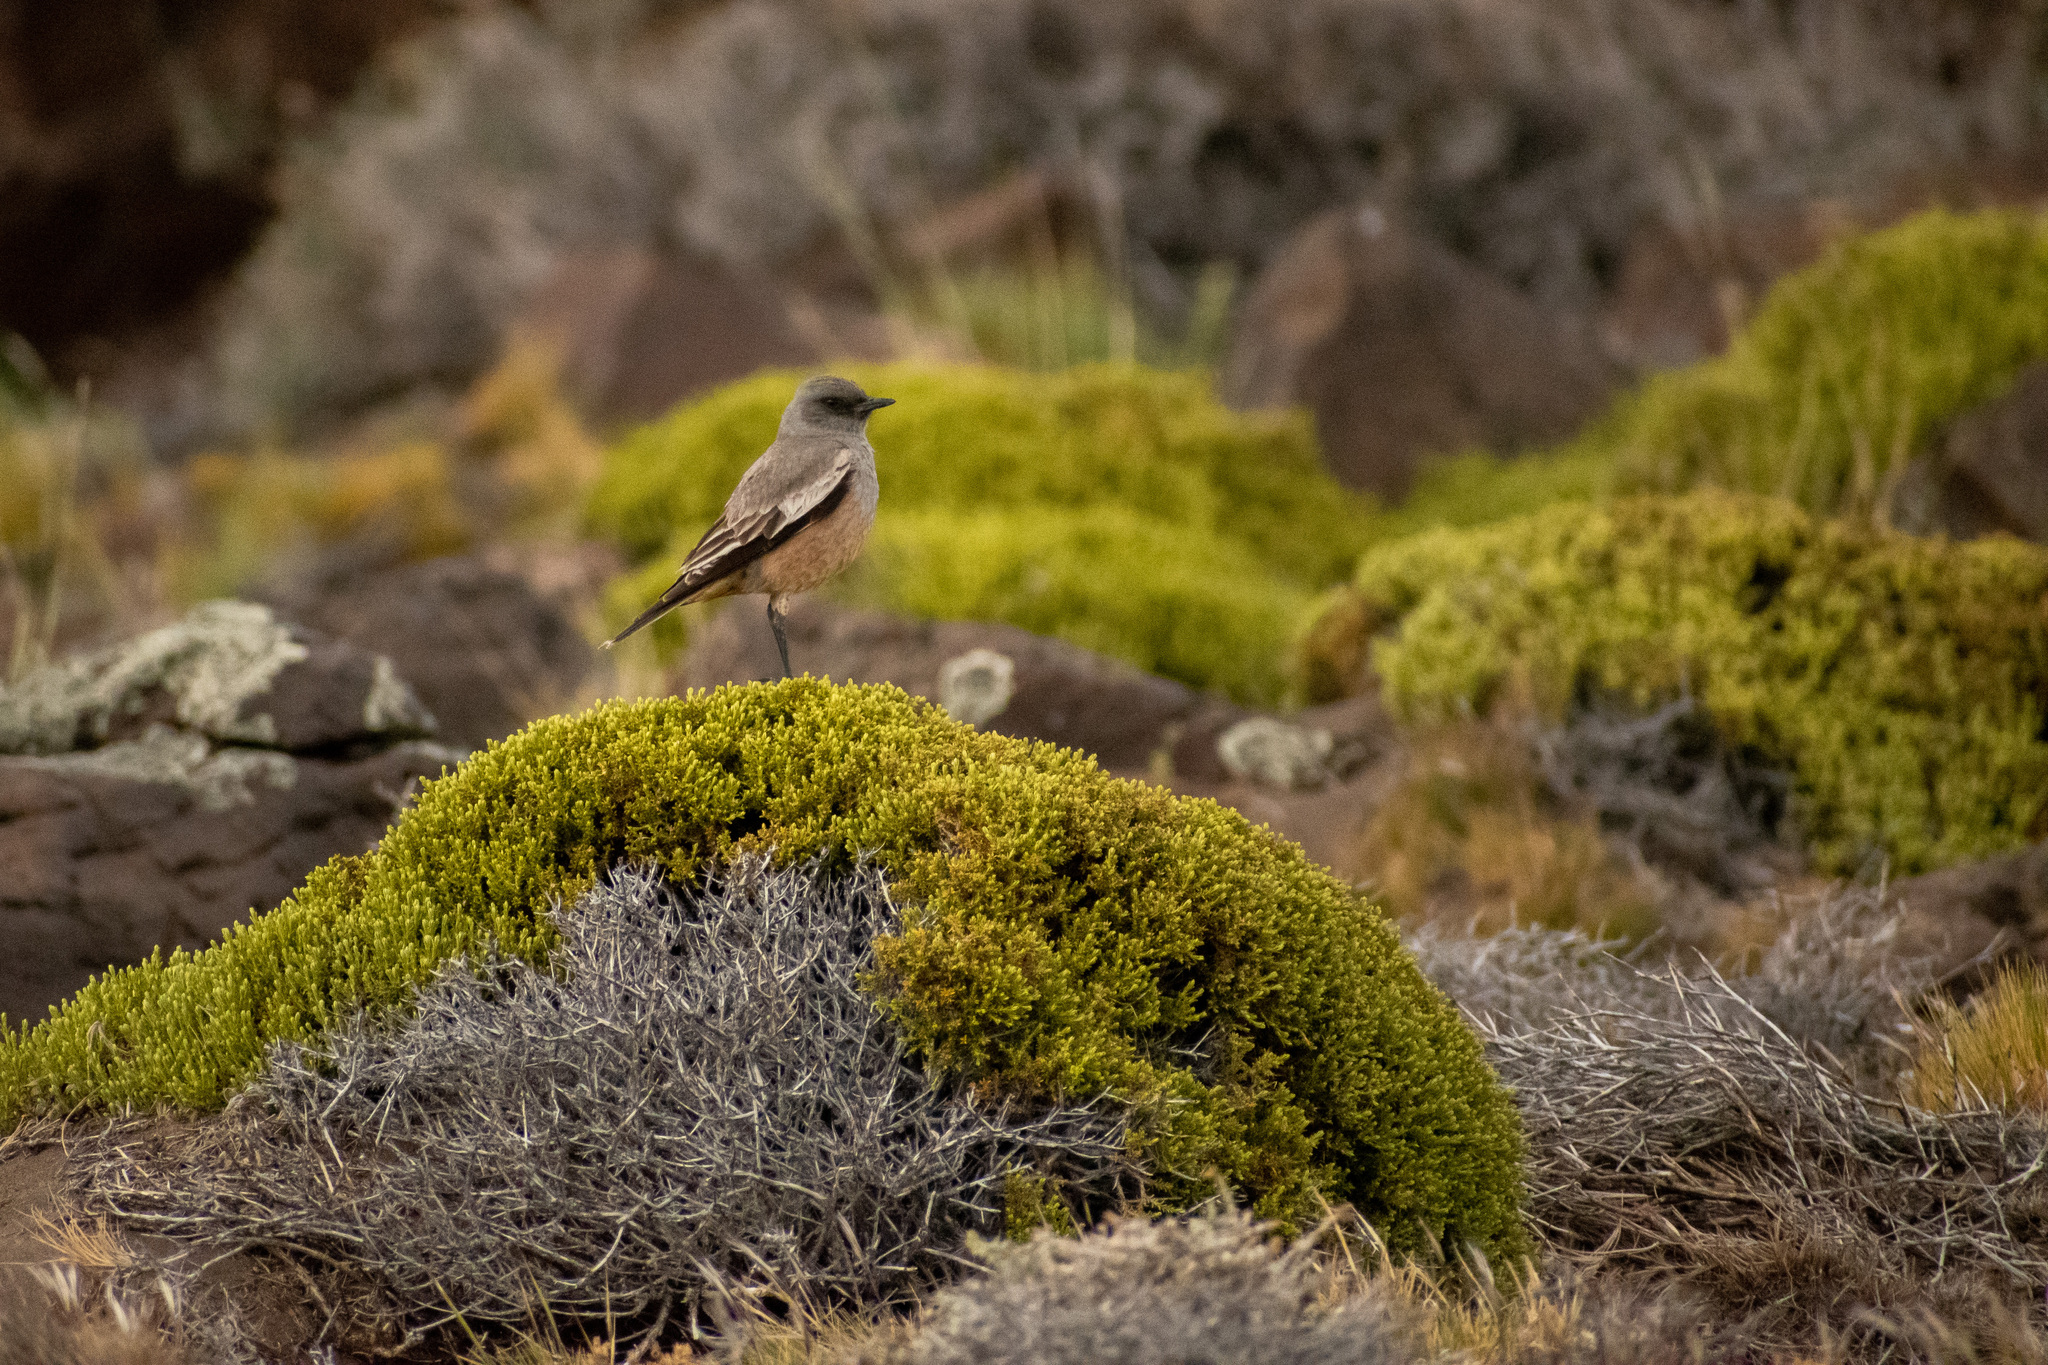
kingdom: Animalia
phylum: Chordata
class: Aves
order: Passeriformes
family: Tyrannidae
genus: Neoxolmis
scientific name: Neoxolmis rufiventris
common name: Chocolate-vented tyrant
